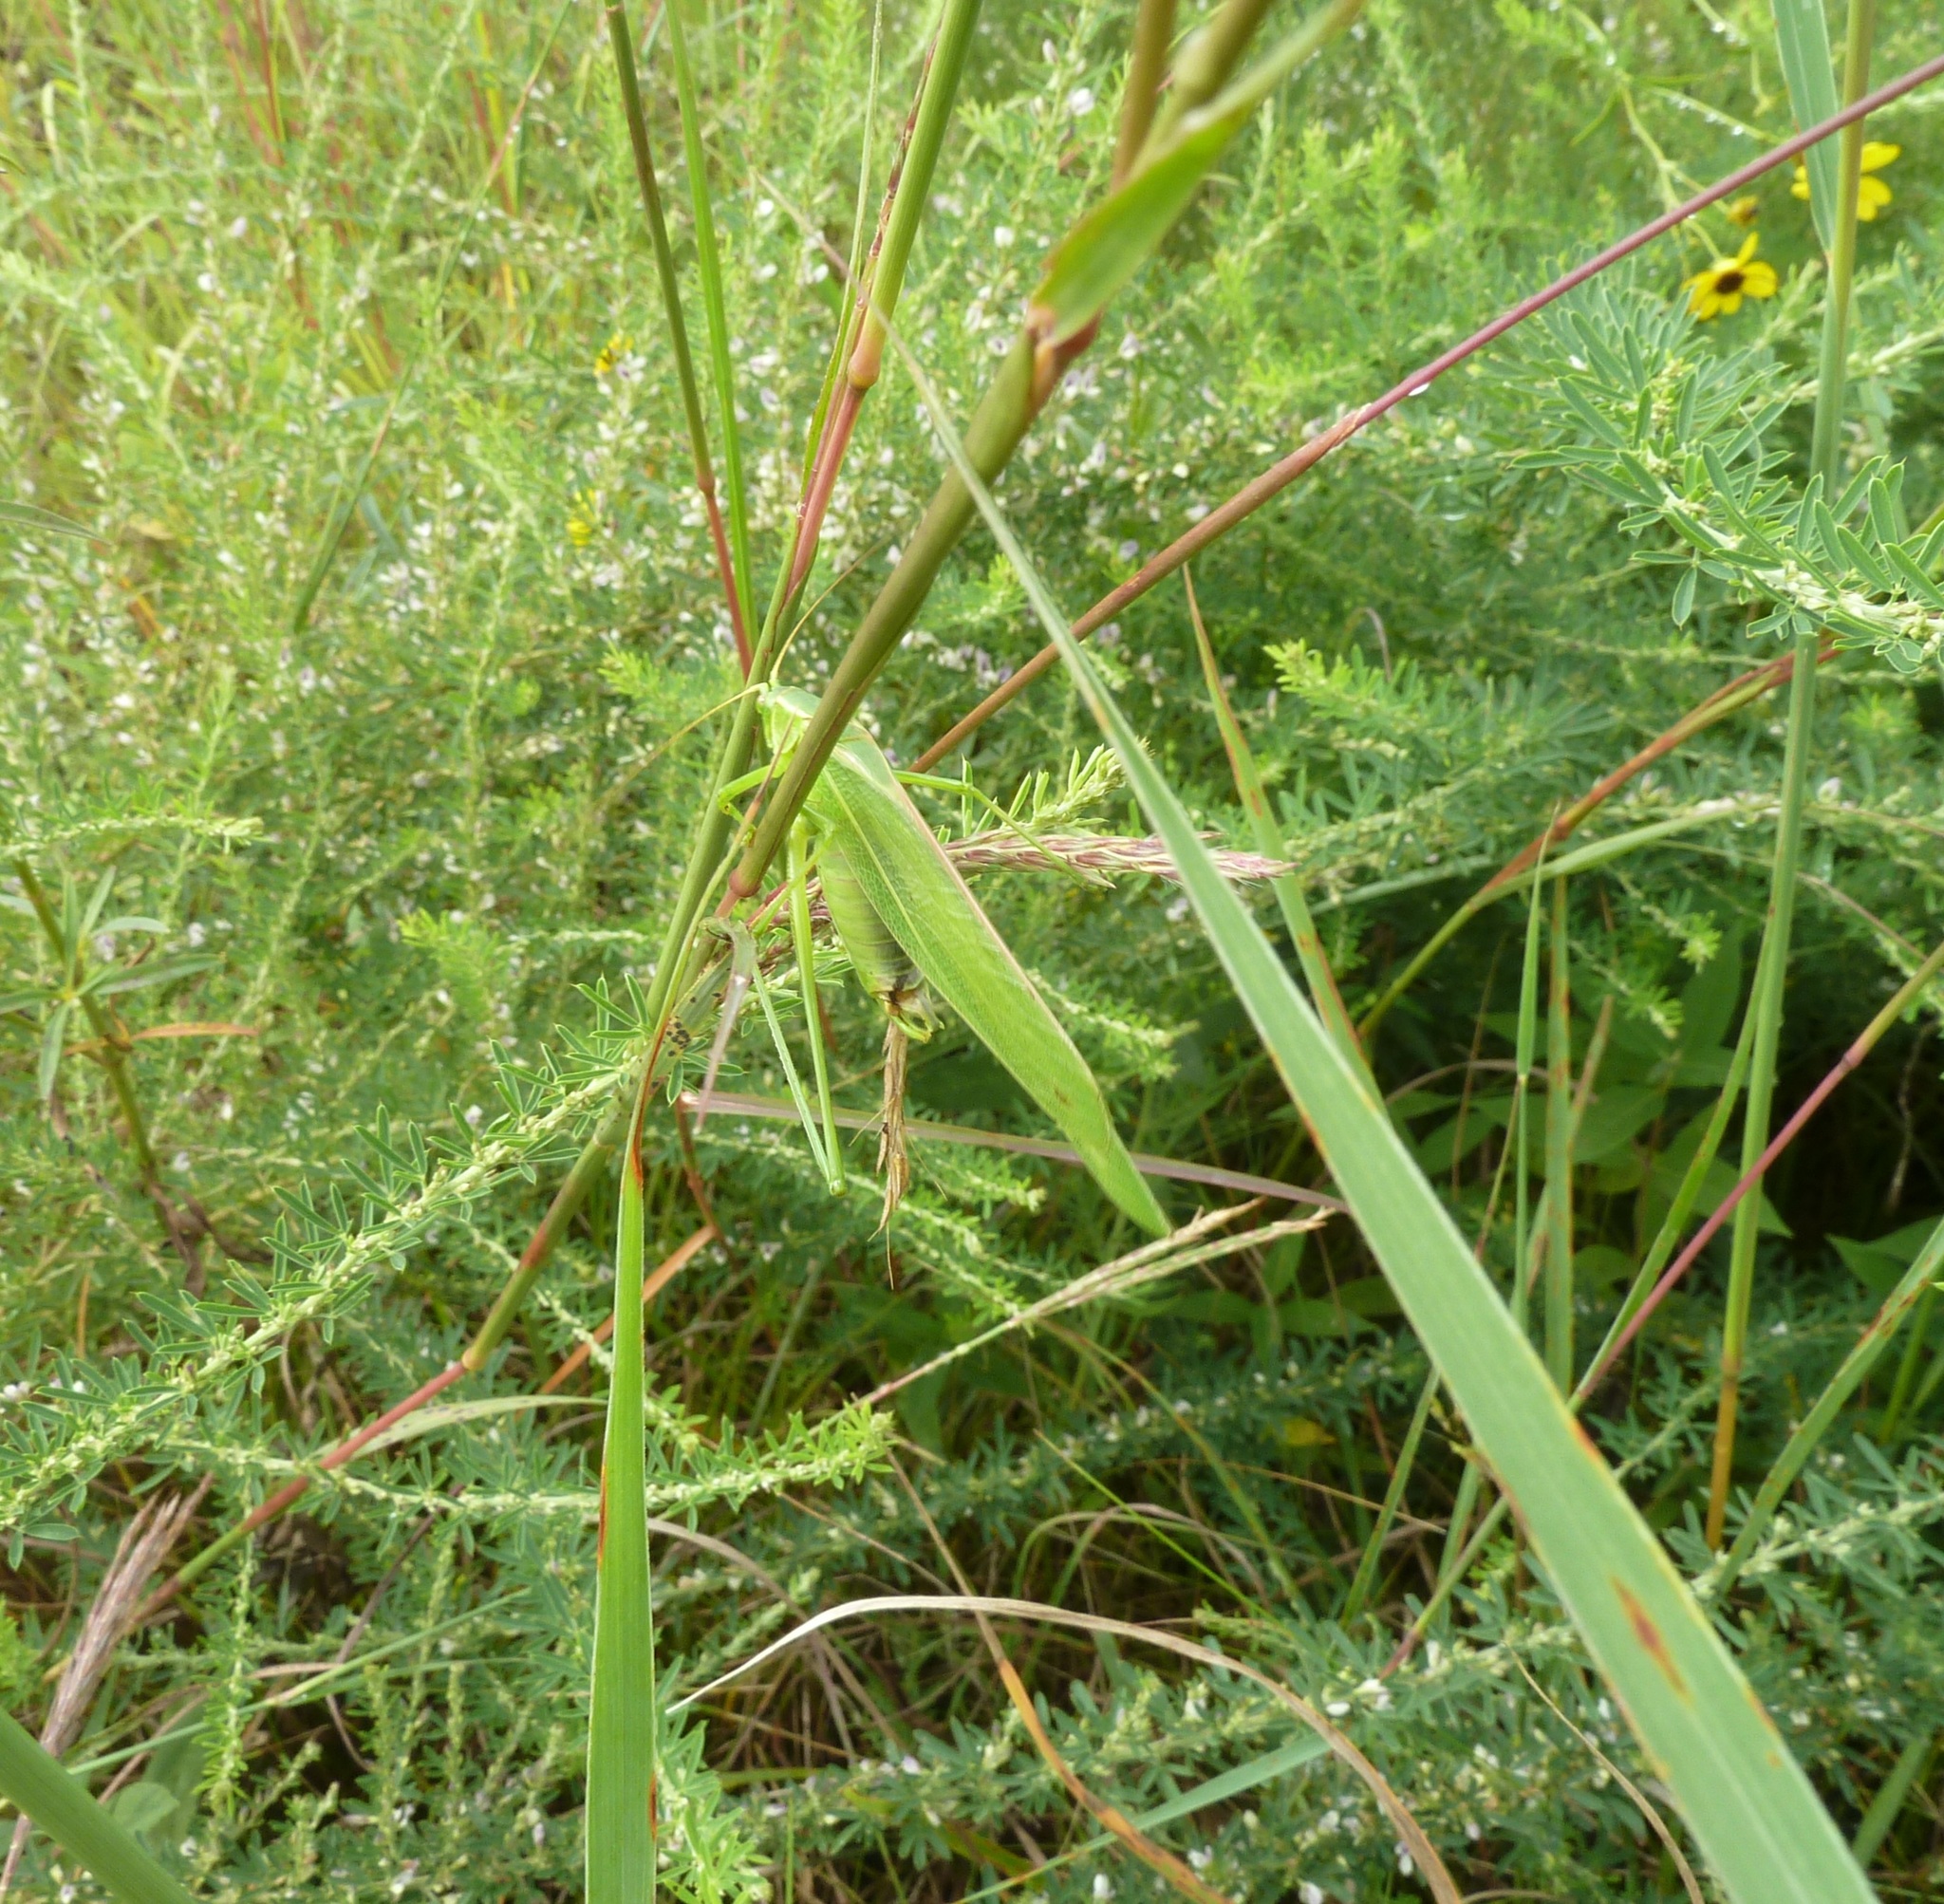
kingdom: Animalia
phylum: Arthropoda
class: Insecta
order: Orthoptera
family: Tettigoniidae
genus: Scudderia
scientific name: Scudderia texensis
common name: Texas bush katydid
